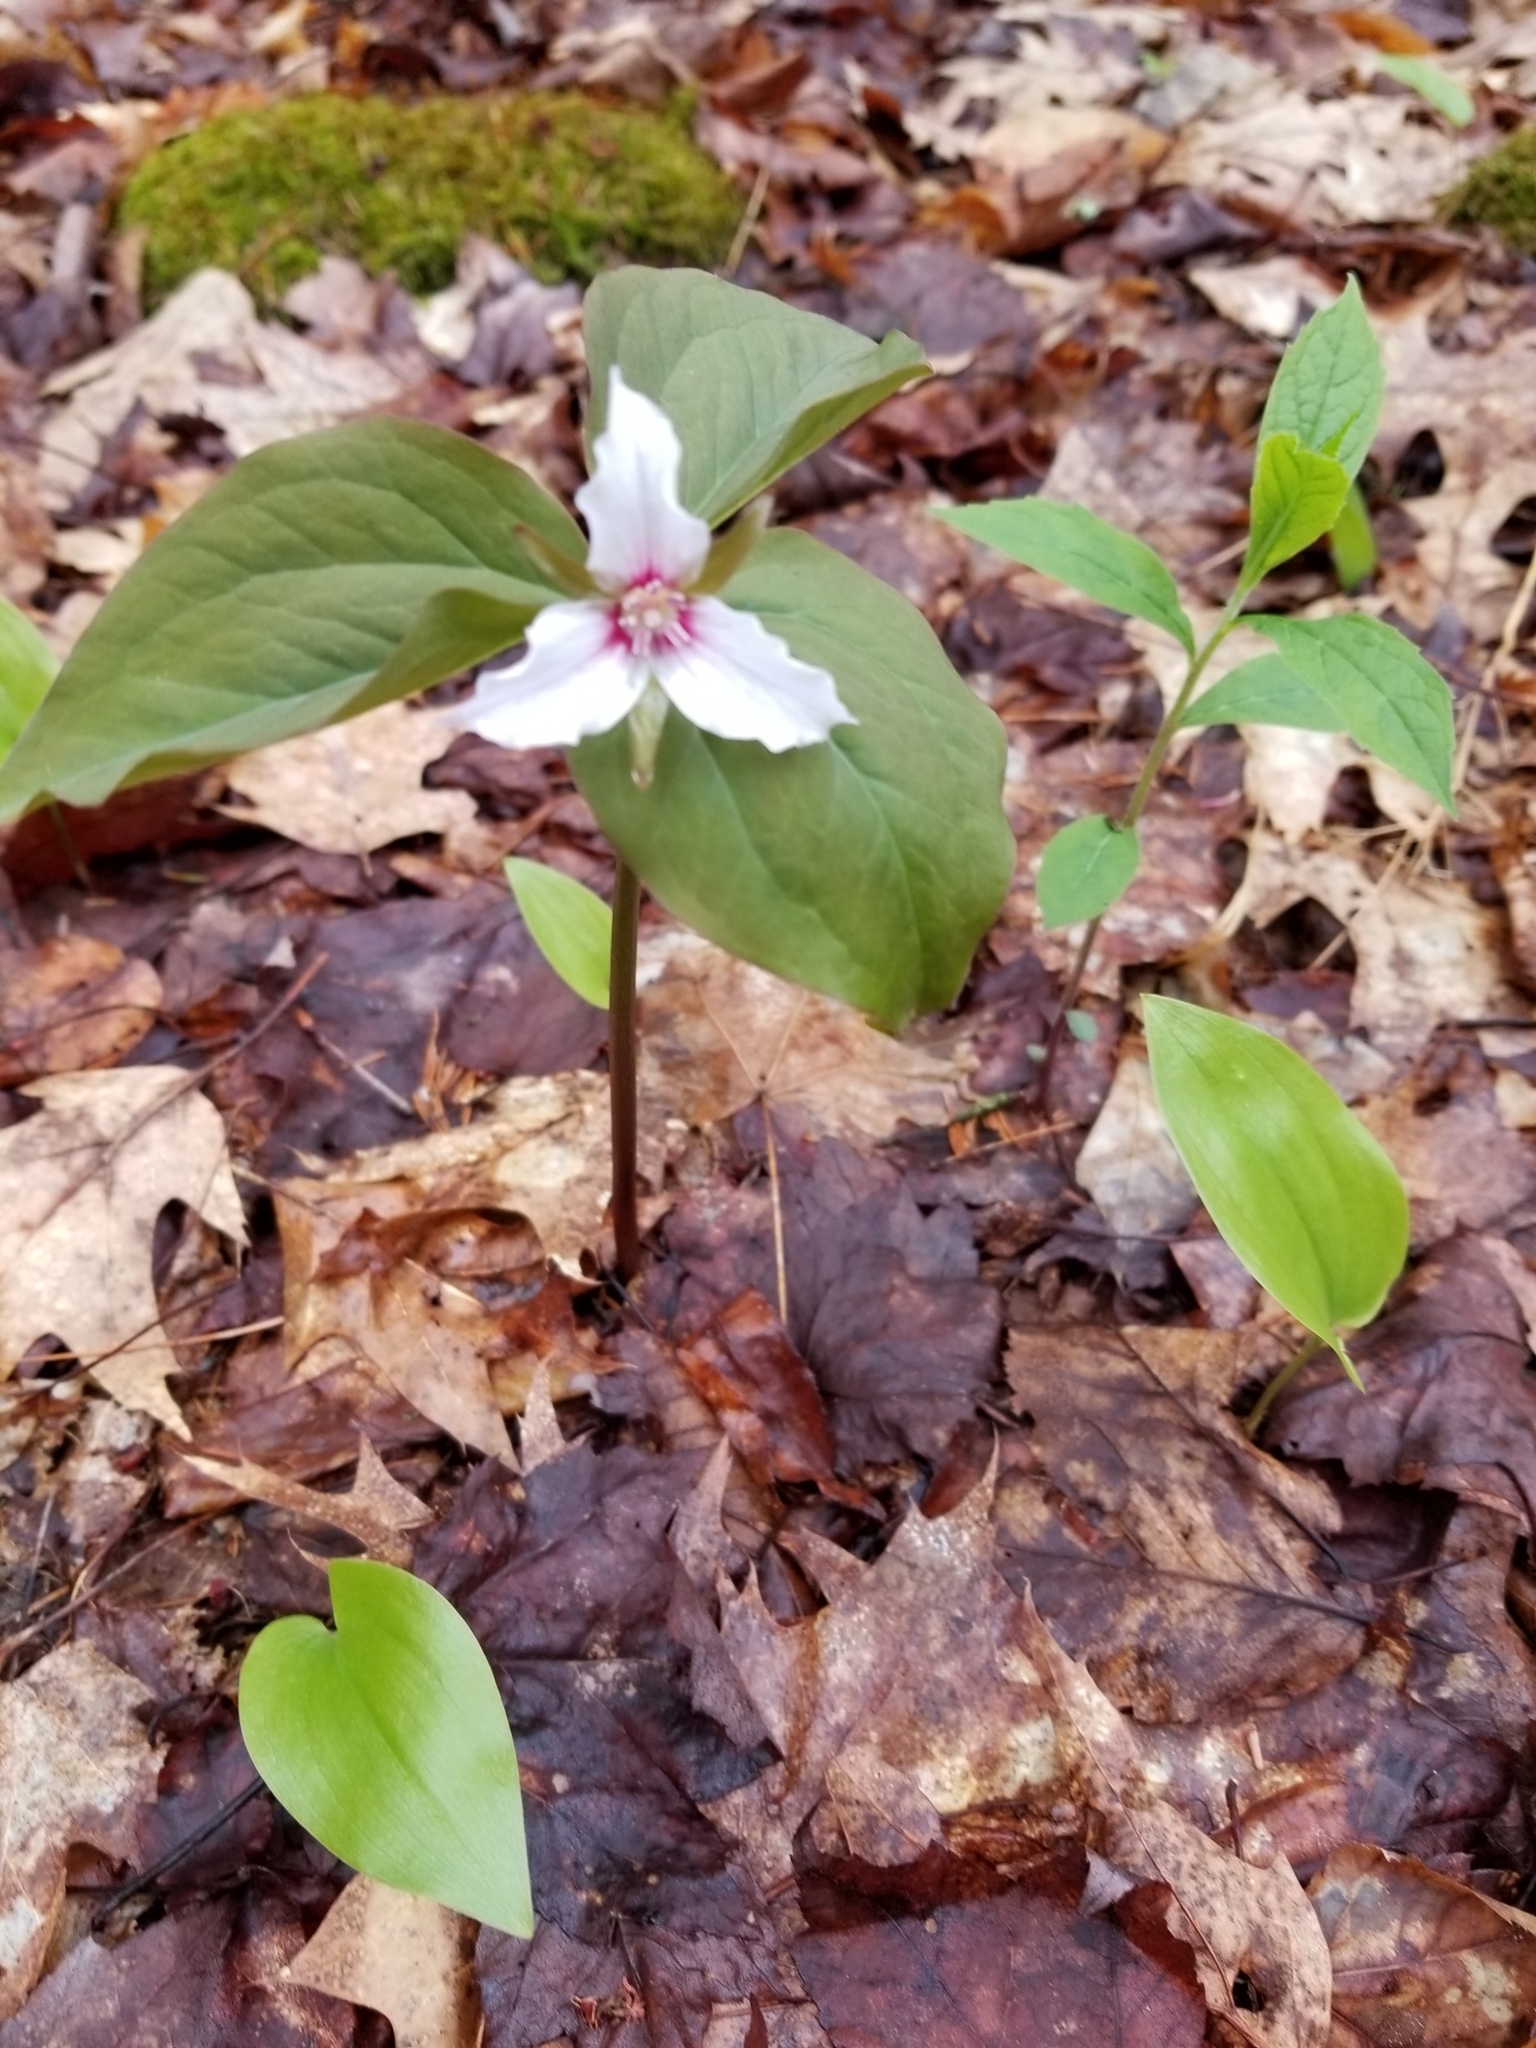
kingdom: Plantae
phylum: Tracheophyta
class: Liliopsida
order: Liliales
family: Melanthiaceae
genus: Trillium
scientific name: Trillium undulatum
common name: Paint trillium
